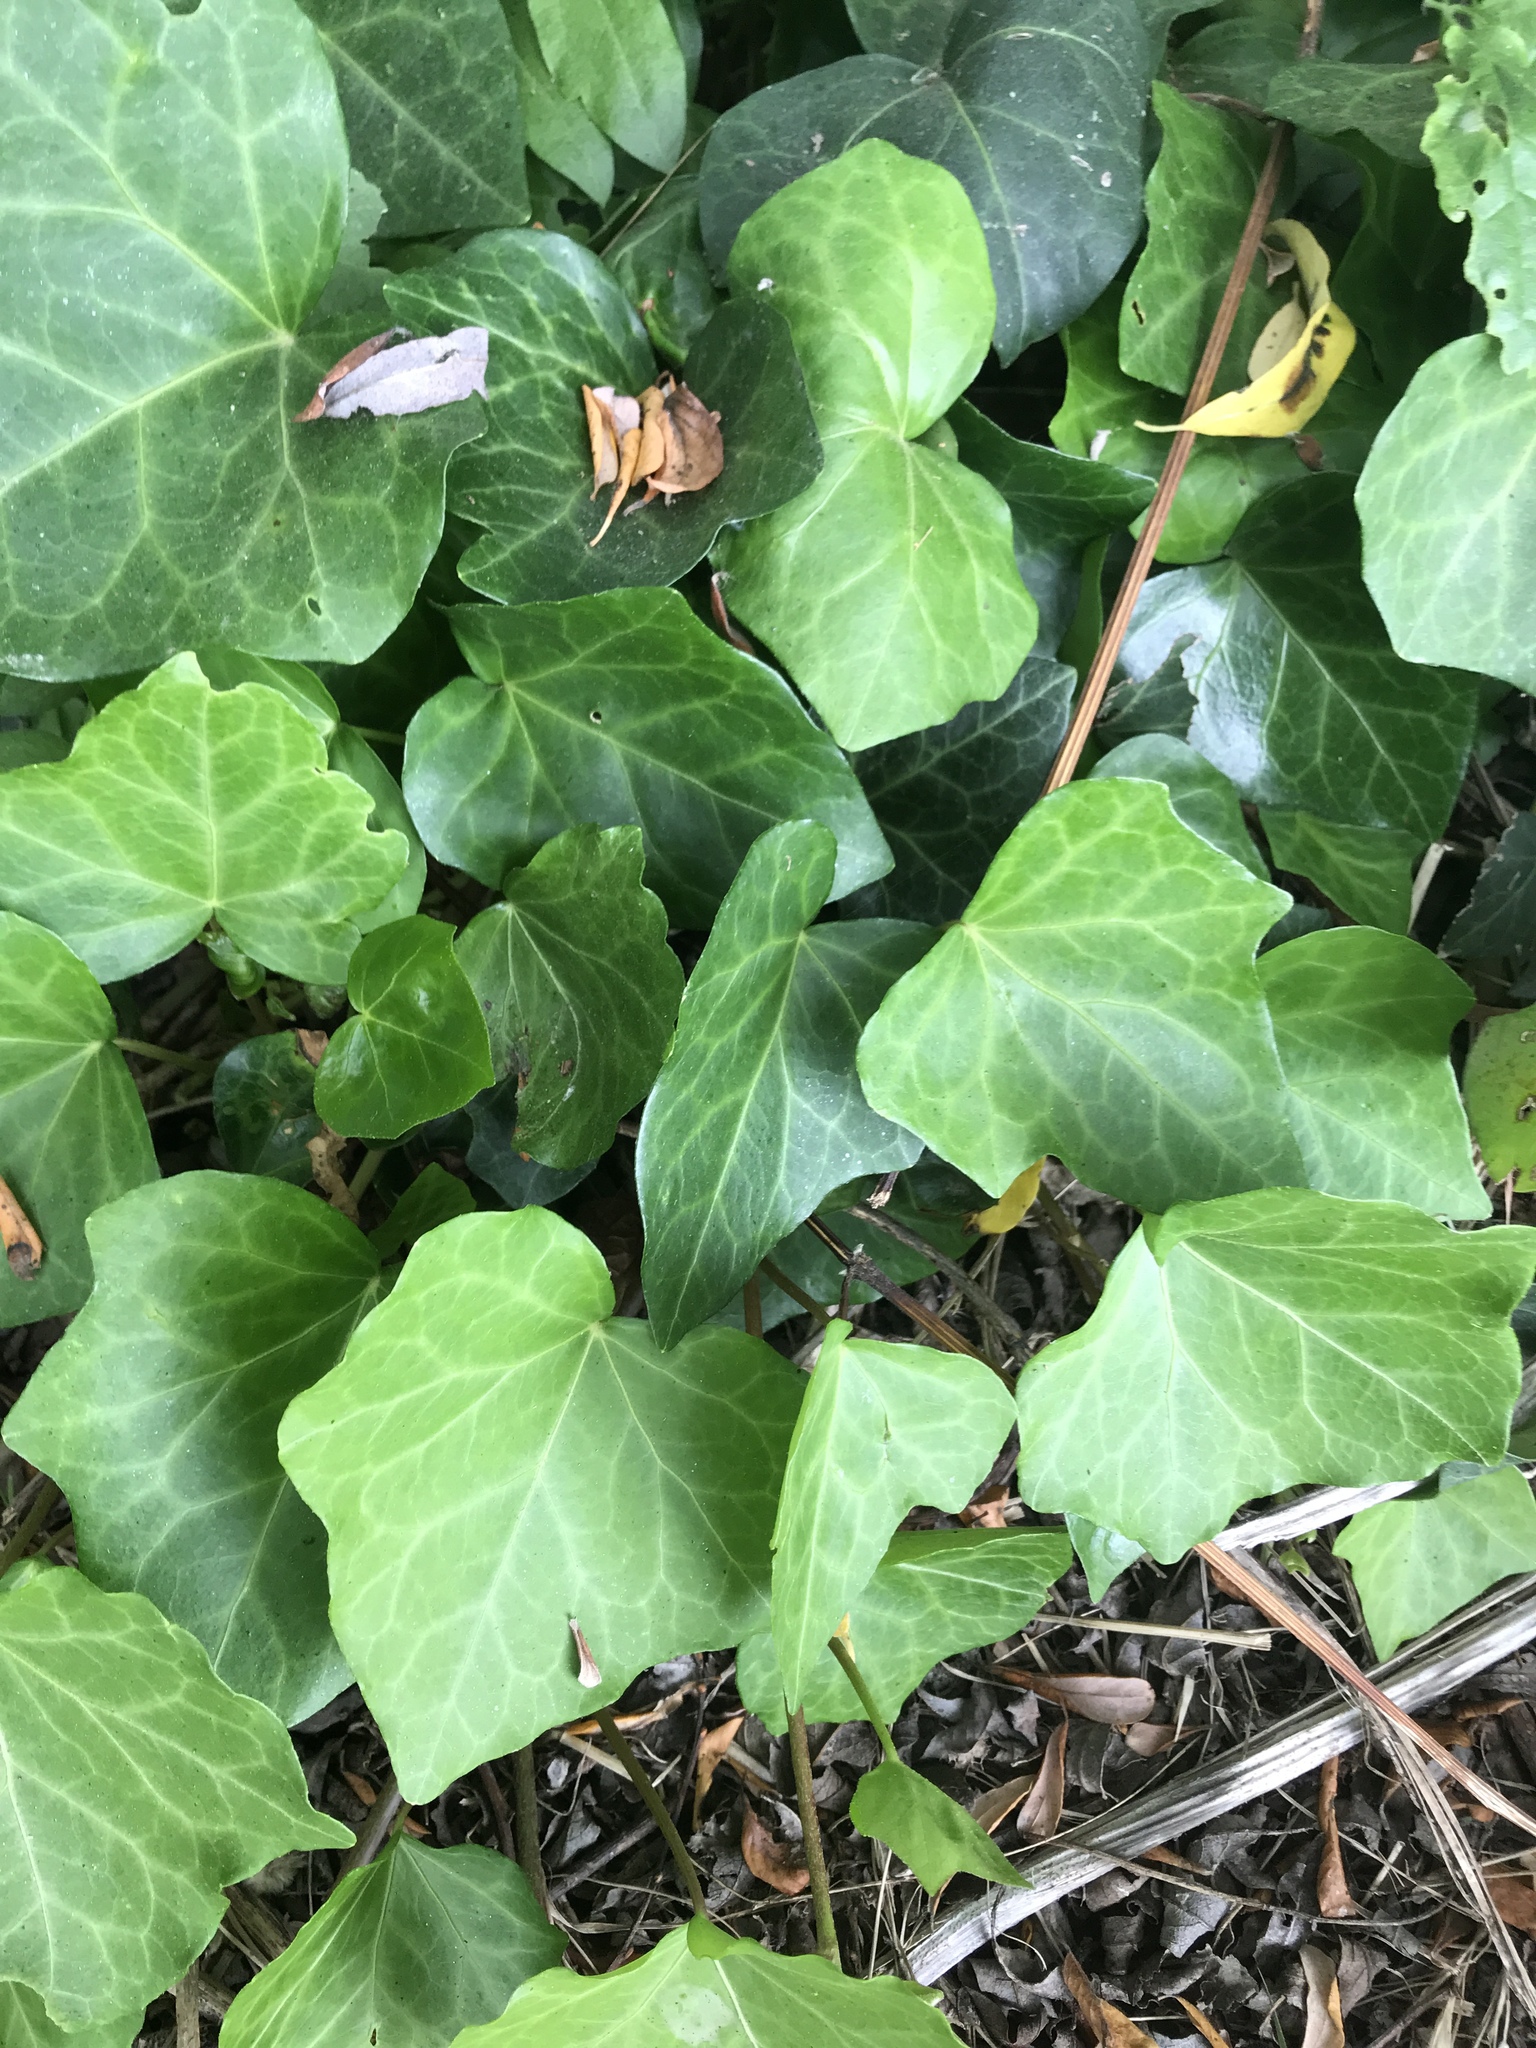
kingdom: Plantae
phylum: Tracheophyta
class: Magnoliopsida
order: Apiales
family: Araliaceae
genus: Hedera
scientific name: Hedera helix
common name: Ivy
